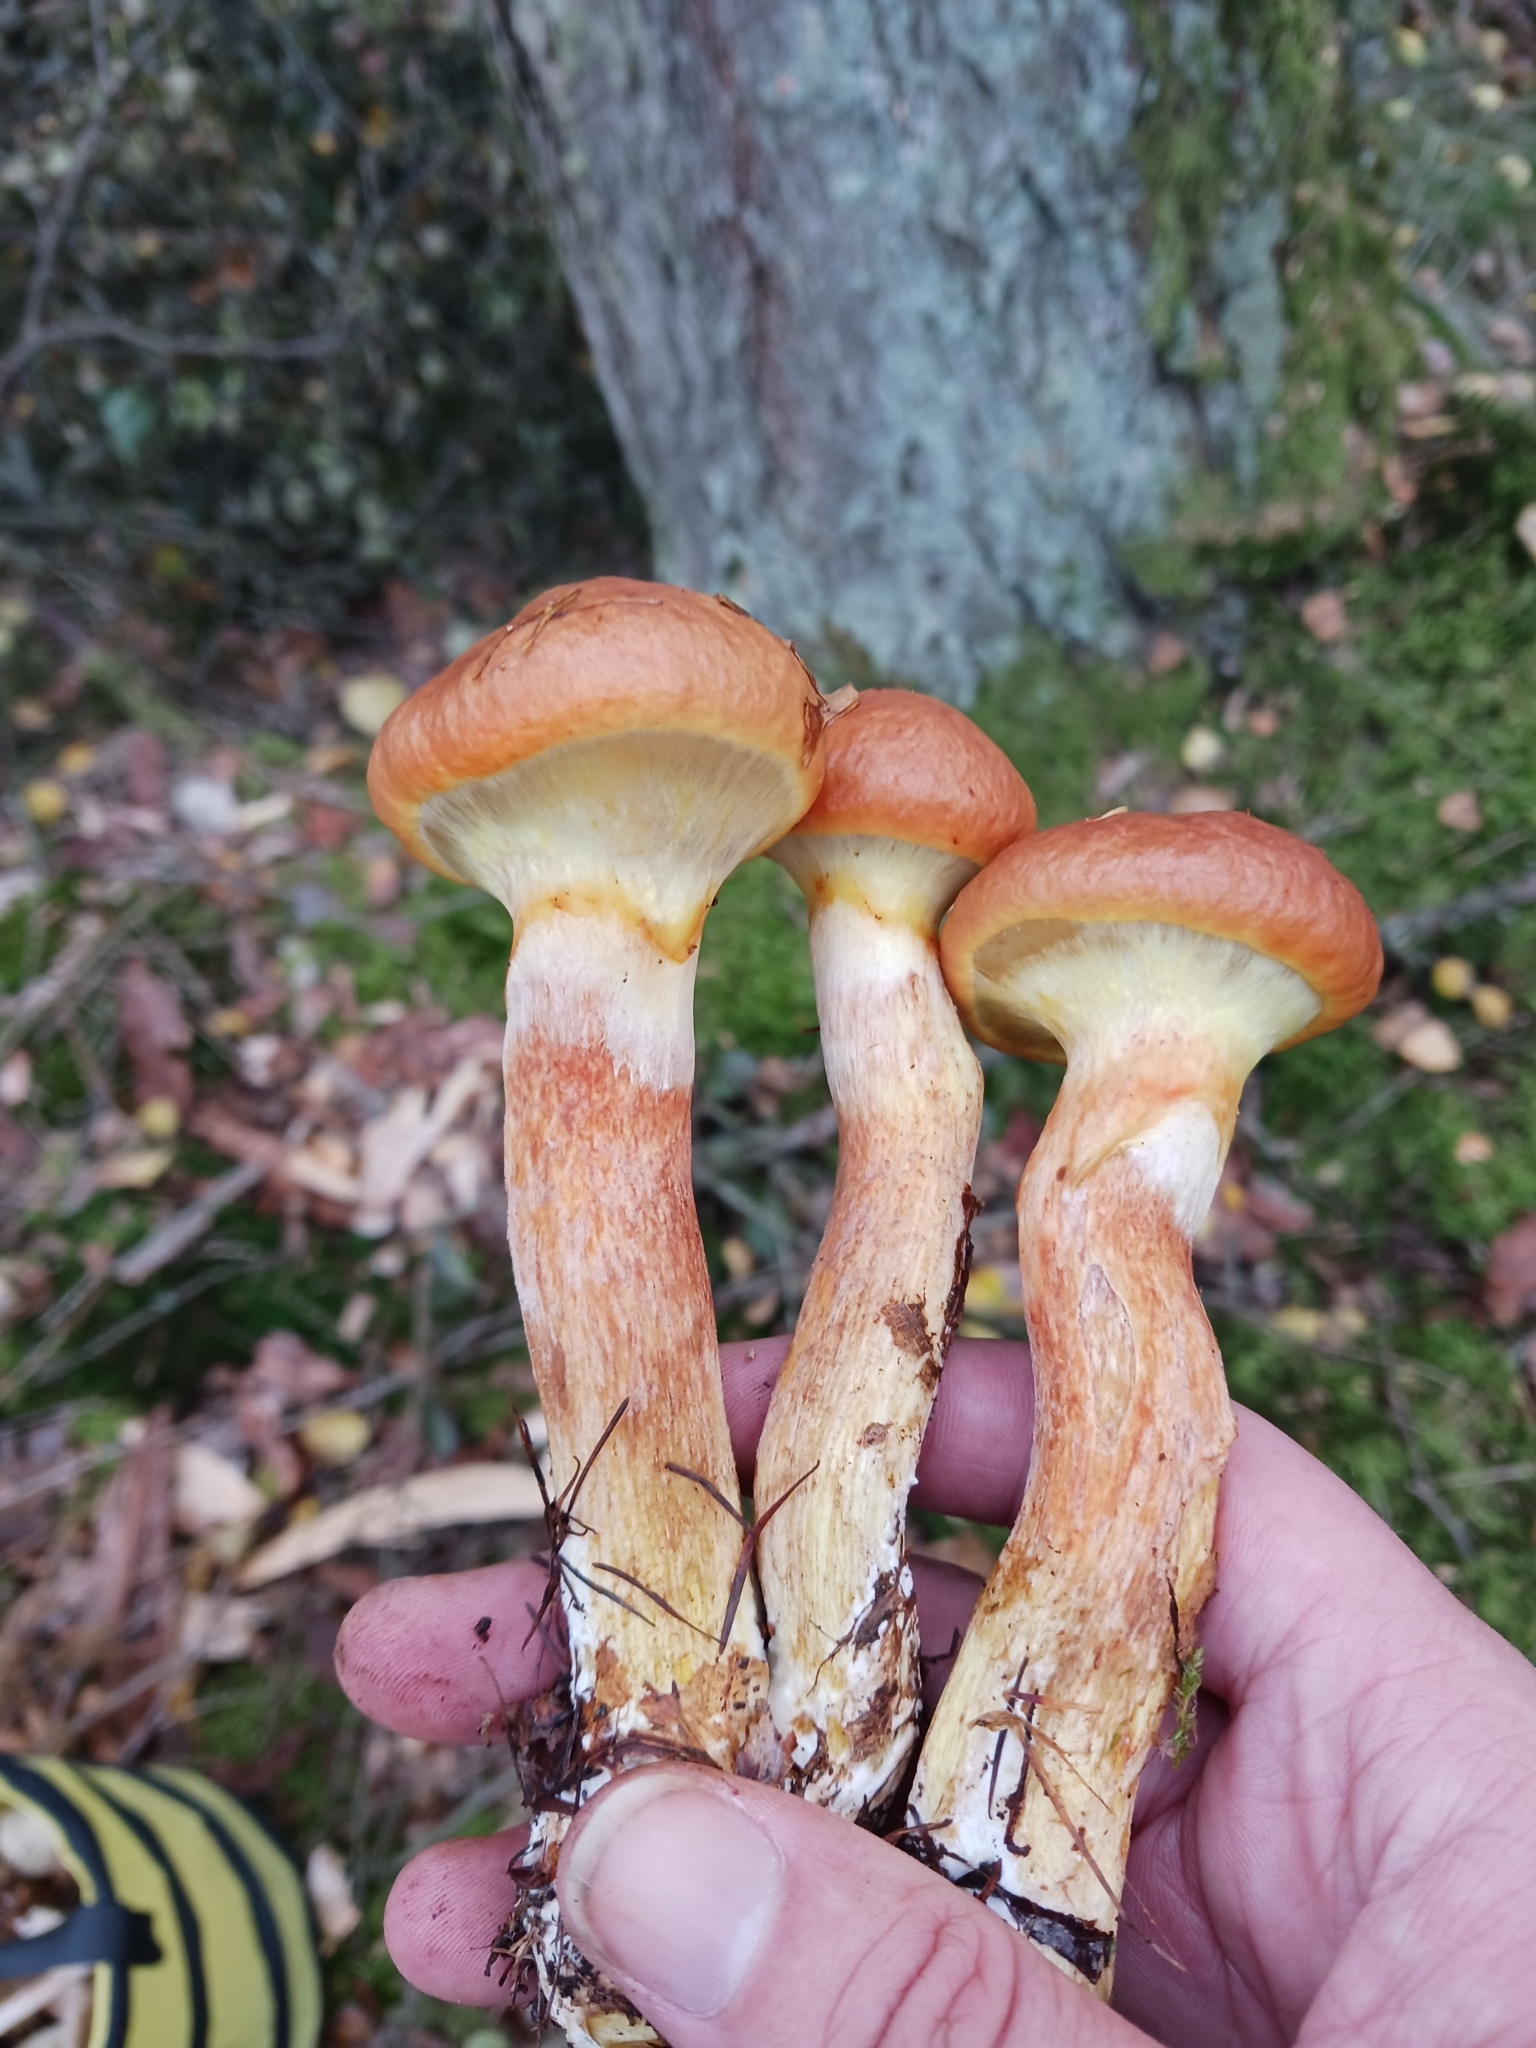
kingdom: Fungi
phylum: Basidiomycota
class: Agaricomycetes
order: Boletales
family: Suillaceae
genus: Suillus
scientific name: Suillus grevillei
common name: Larch bolete
